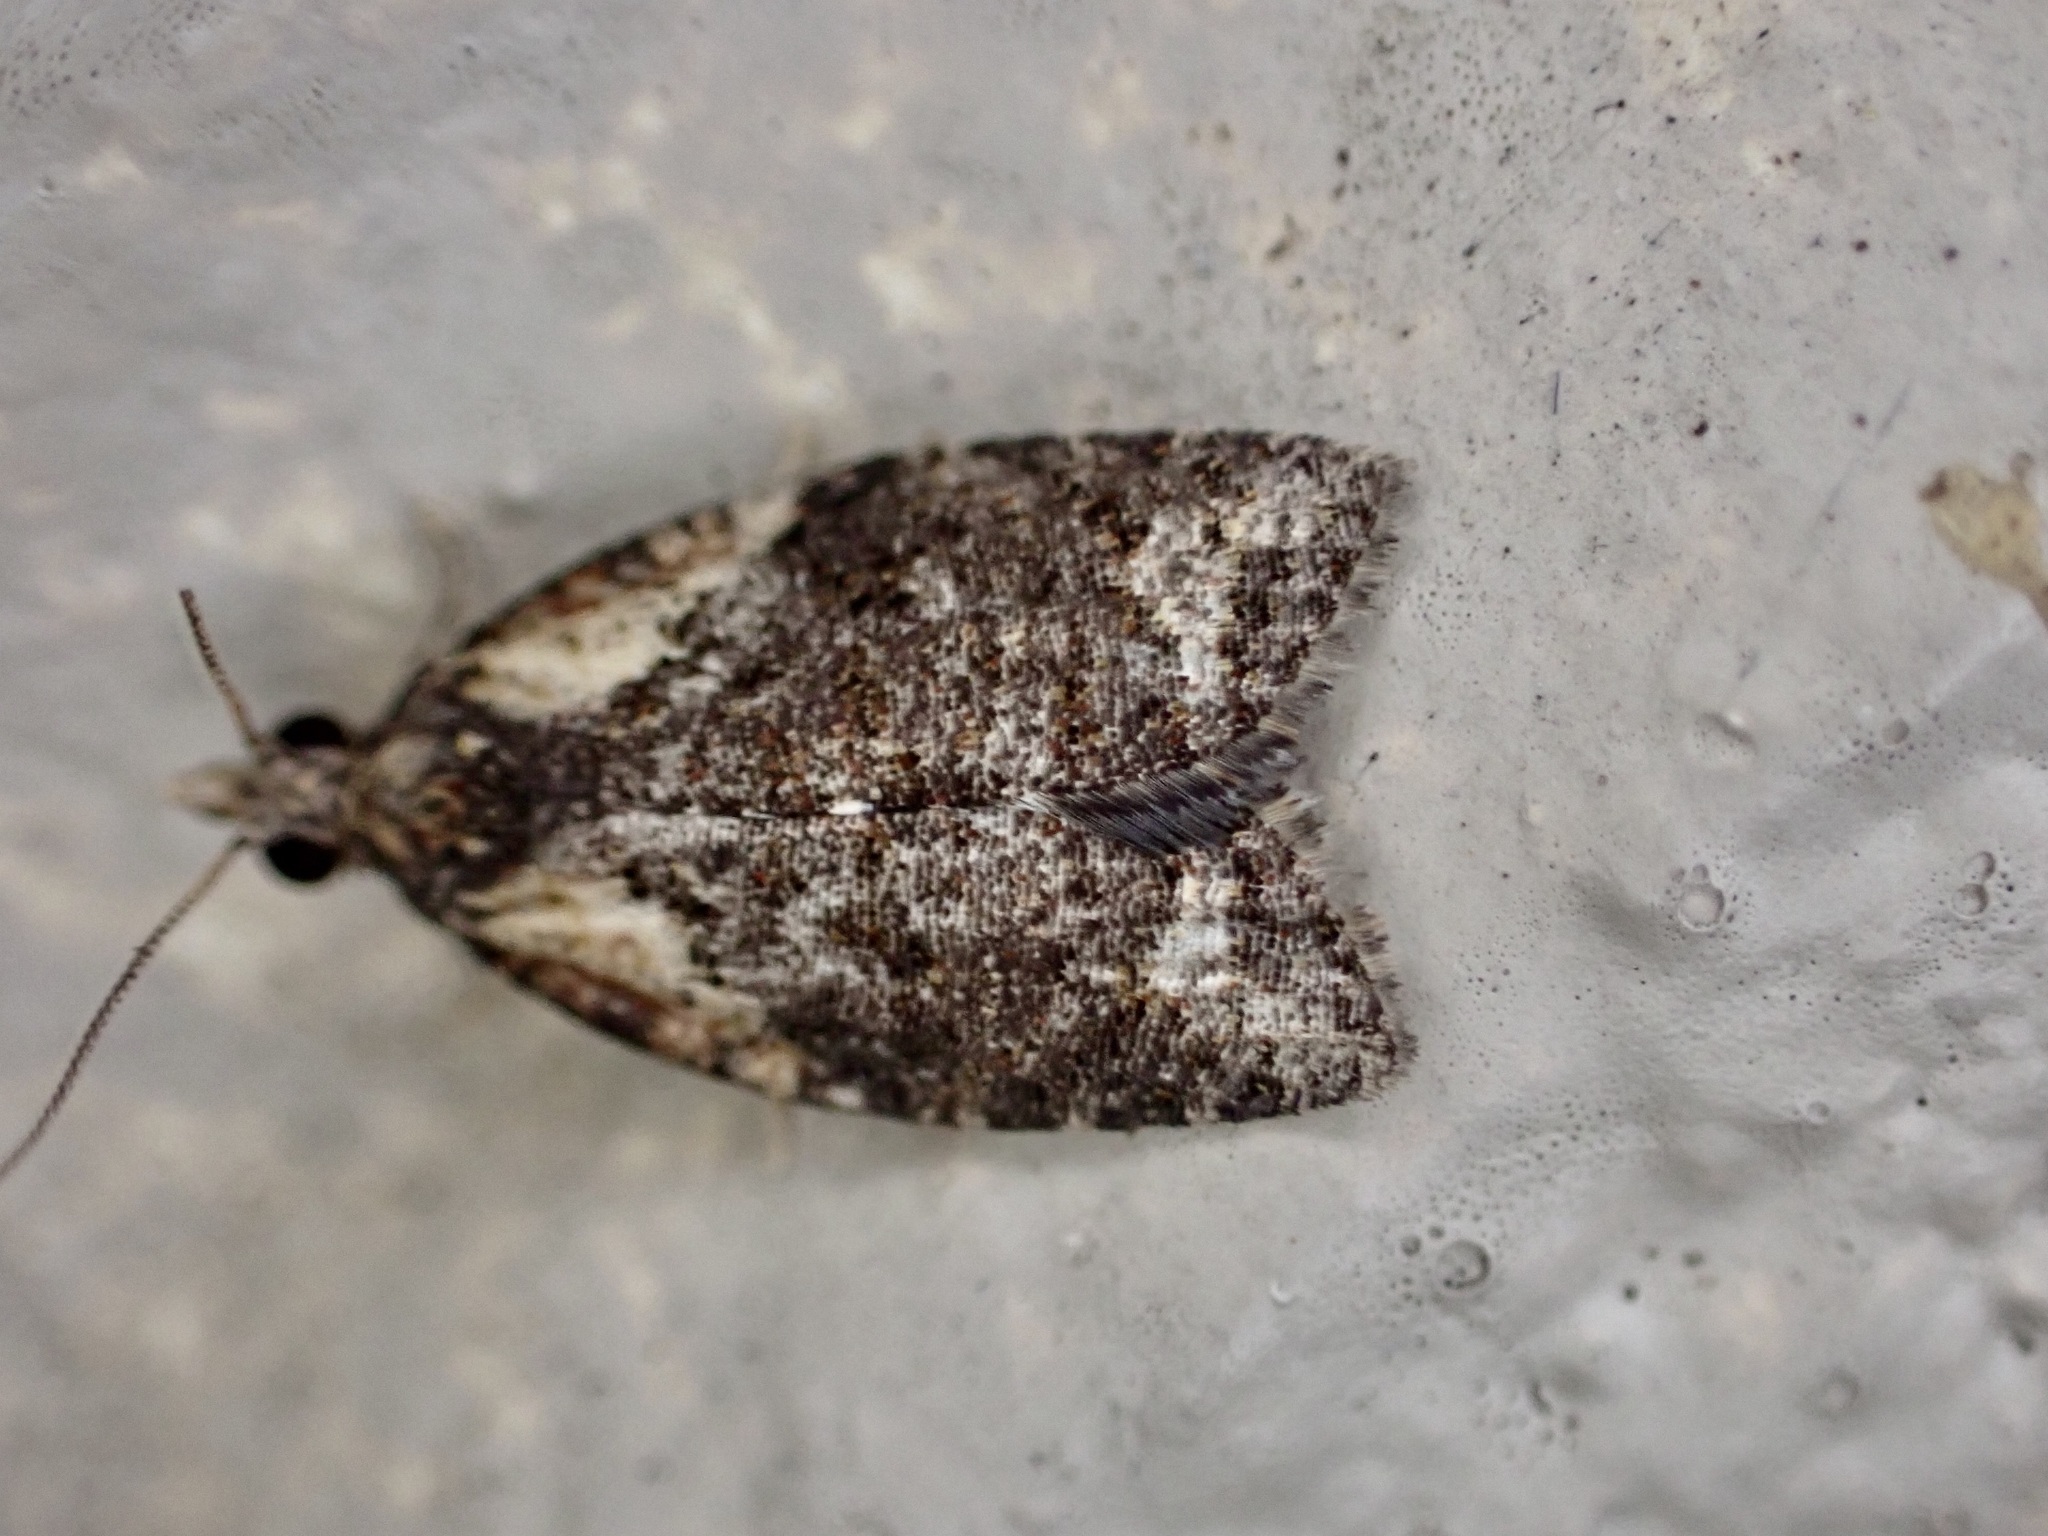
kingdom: Animalia
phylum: Arthropoda
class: Insecta
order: Lepidoptera
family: Tortricidae
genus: Capua
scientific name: Capua intractana
